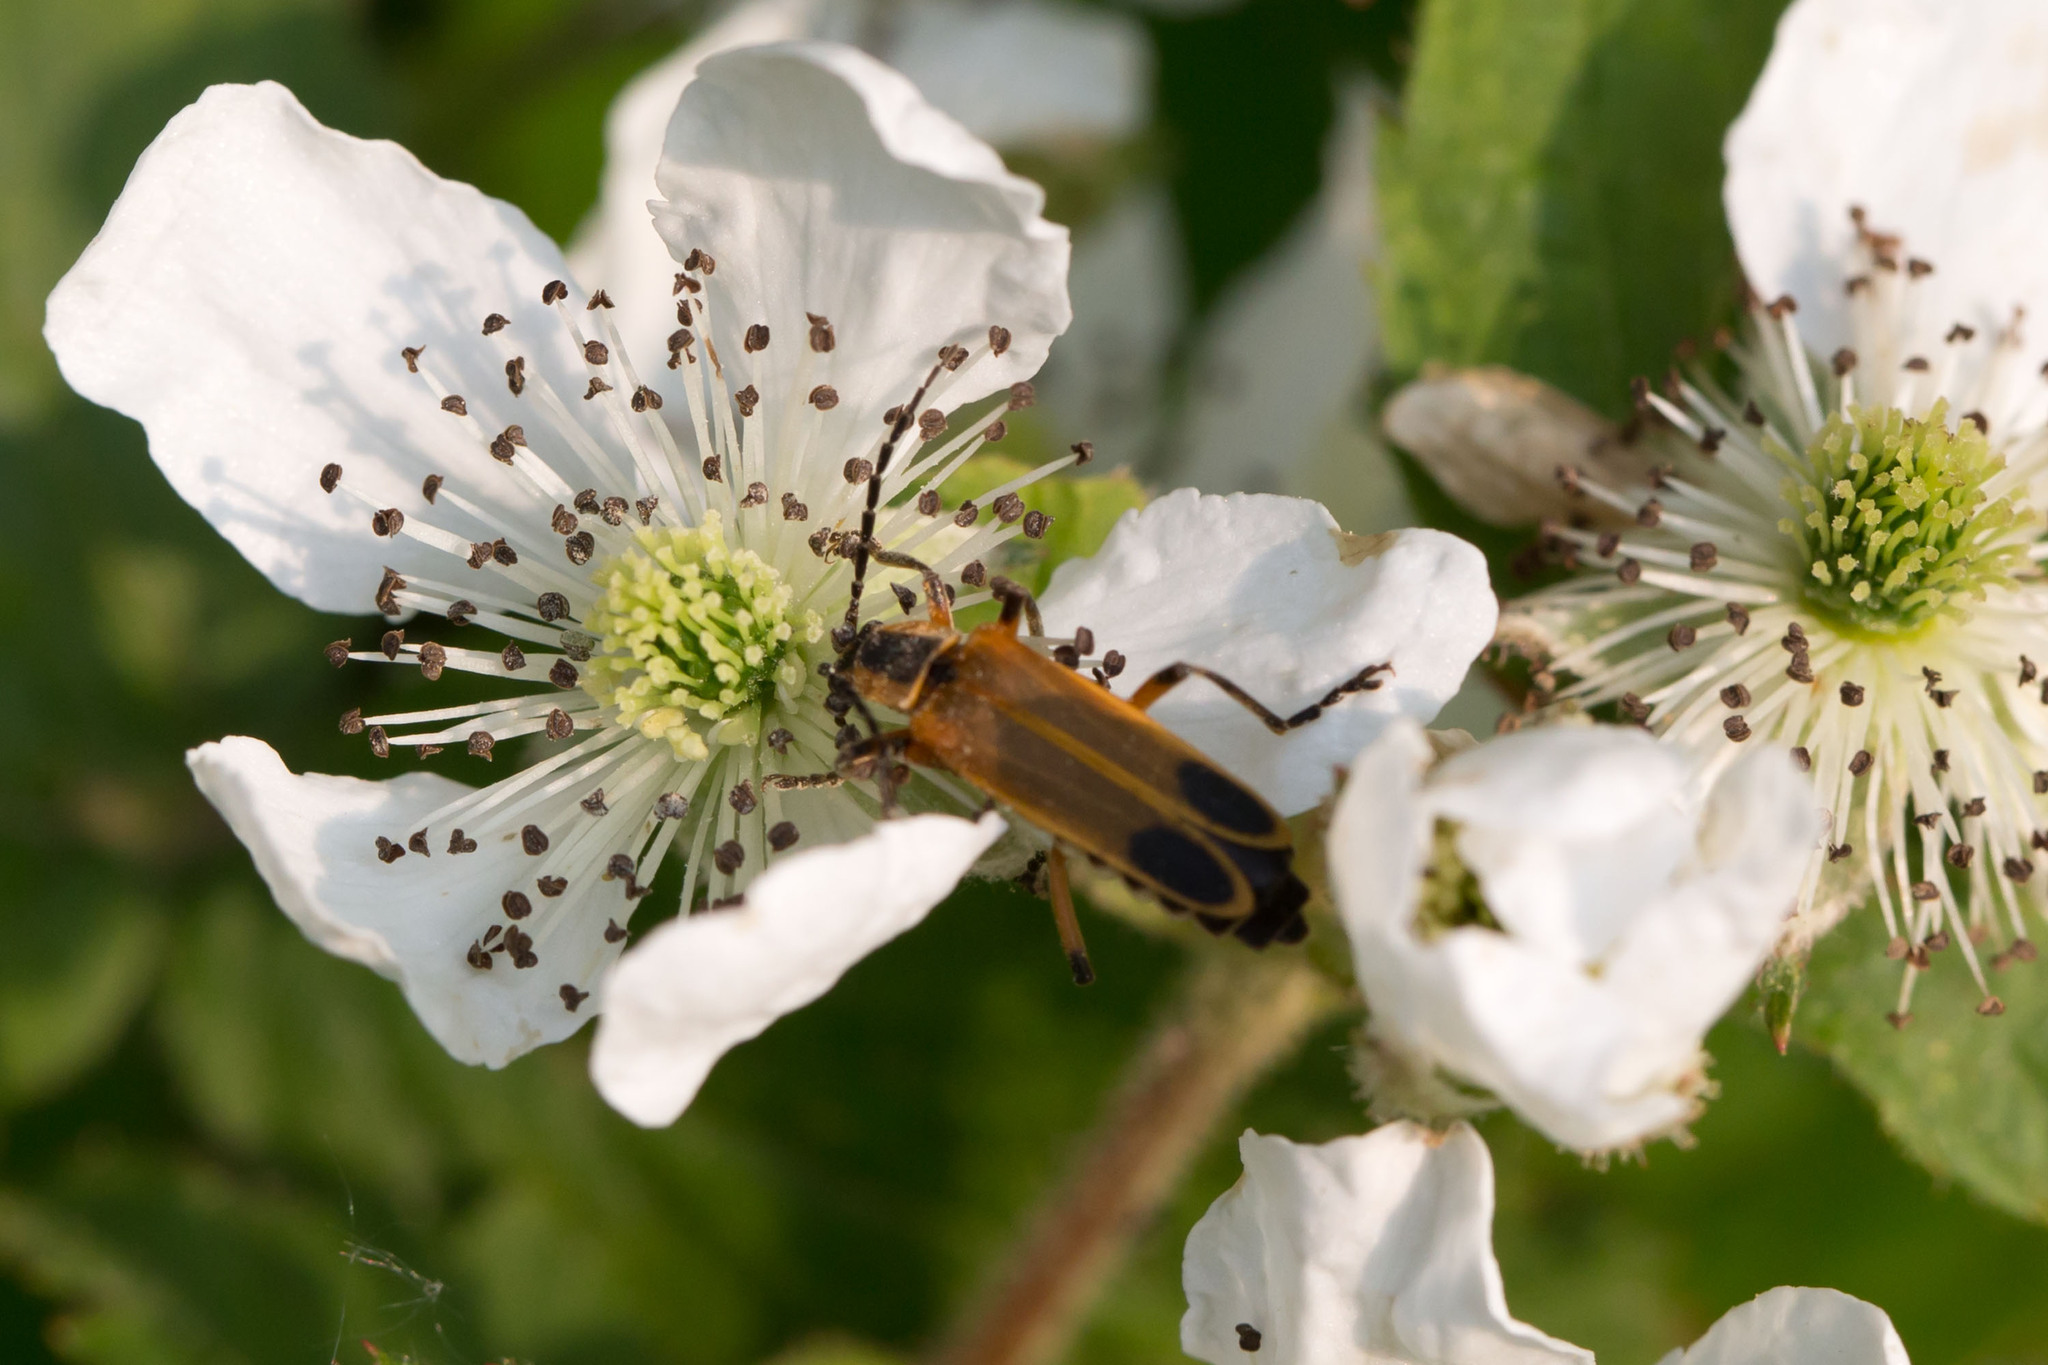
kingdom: Animalia
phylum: Arthropoda
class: Insecta
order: Coleoptera
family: Cantharidae
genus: Chauliognathus
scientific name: Chauliognathus marginatus
